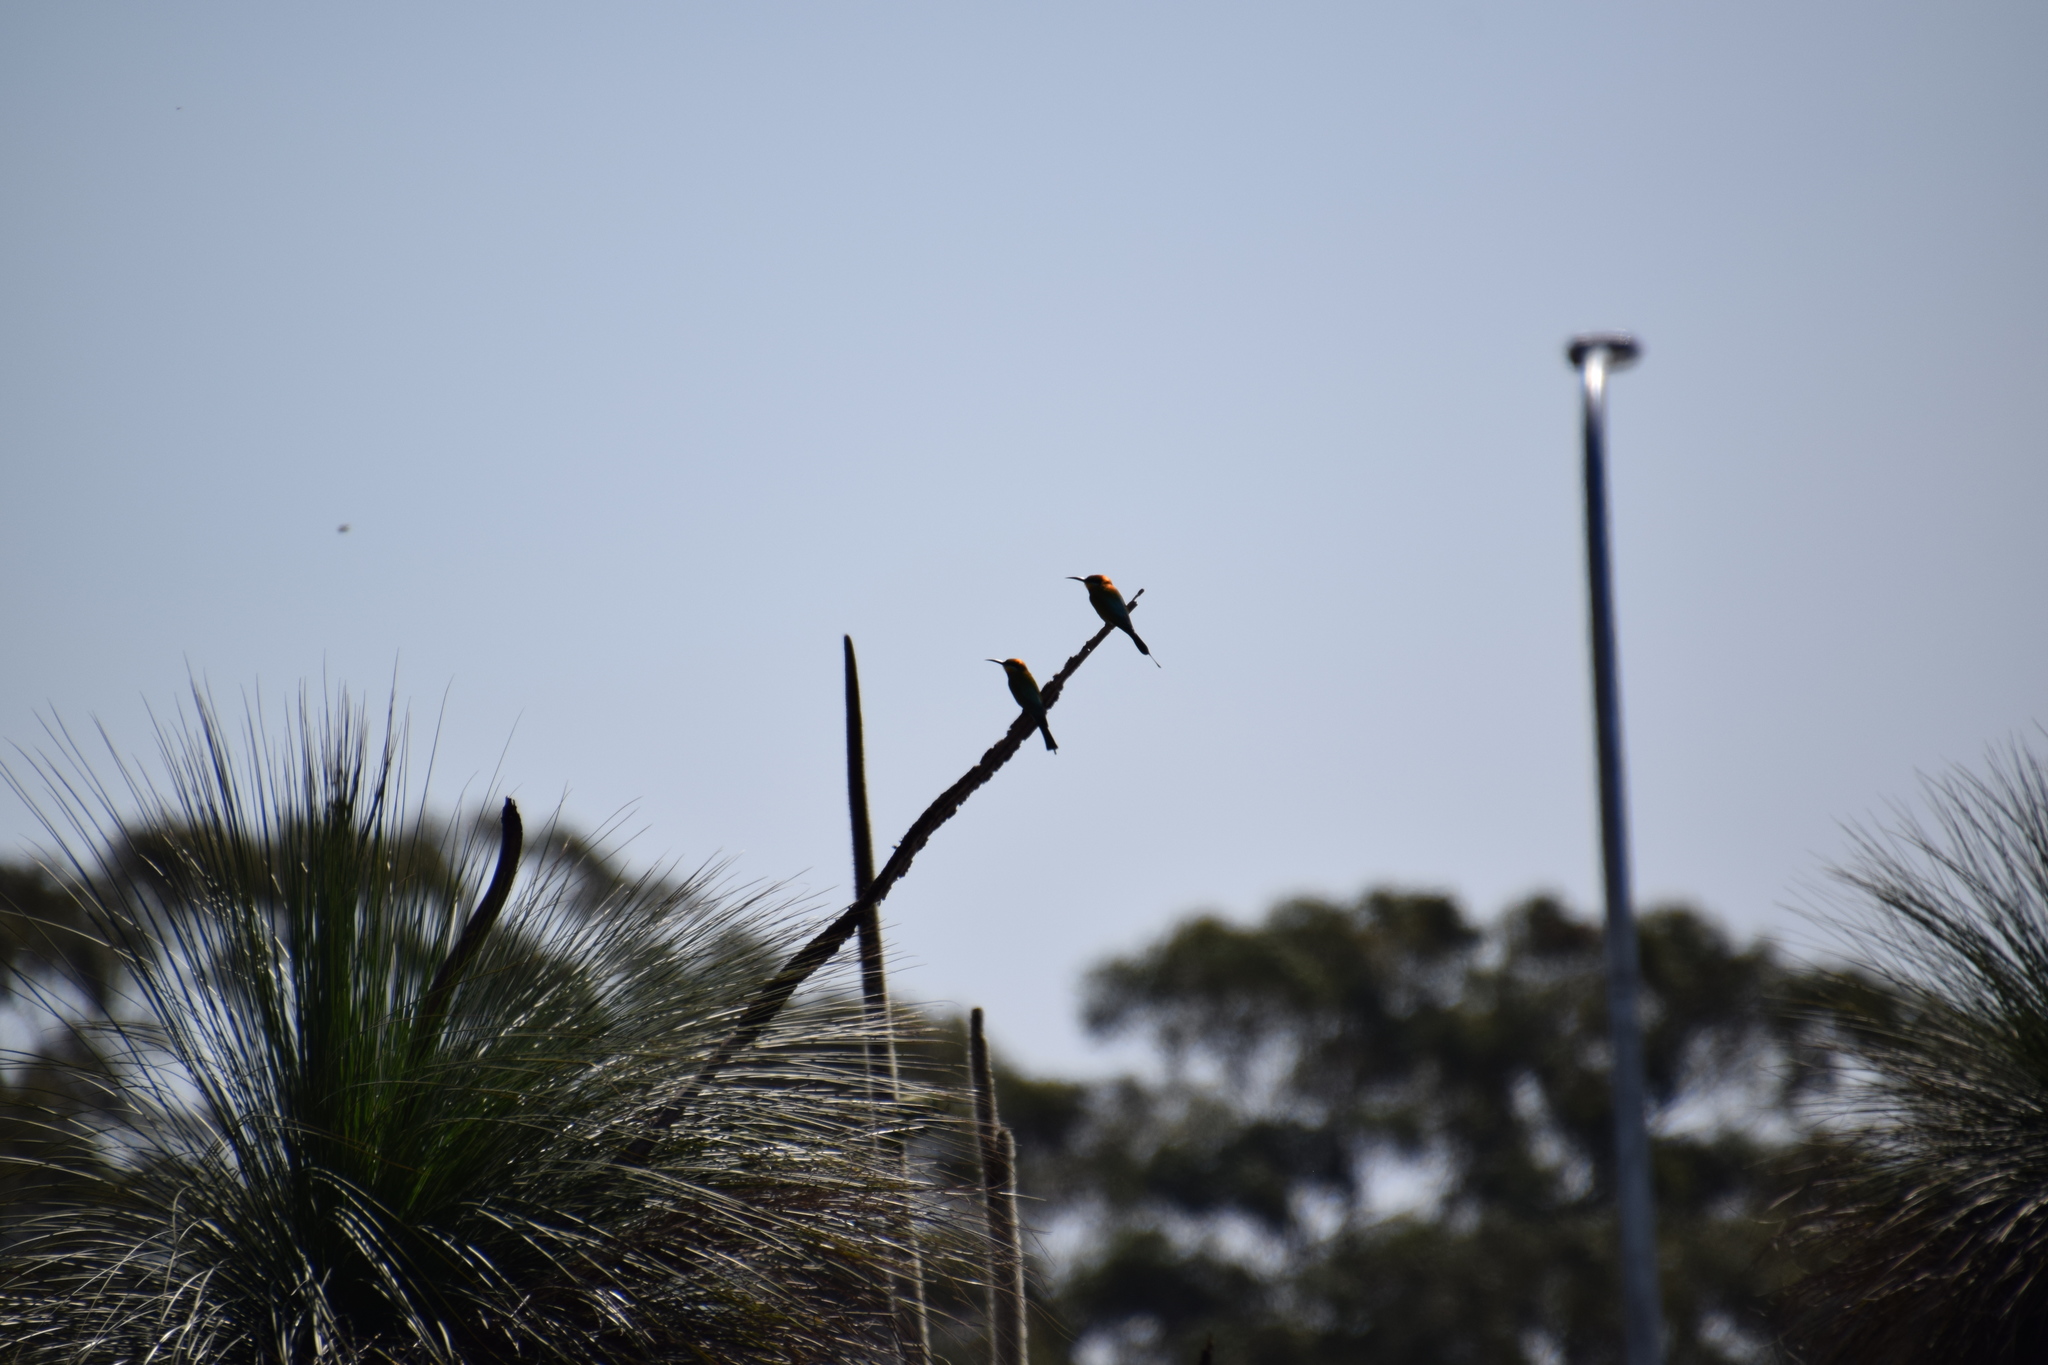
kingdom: Animalia
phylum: Chordata
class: Aves
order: Coraciiformes
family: Meropidae
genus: Merops
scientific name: Merops ornatus
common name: Rainbow bee-eater
